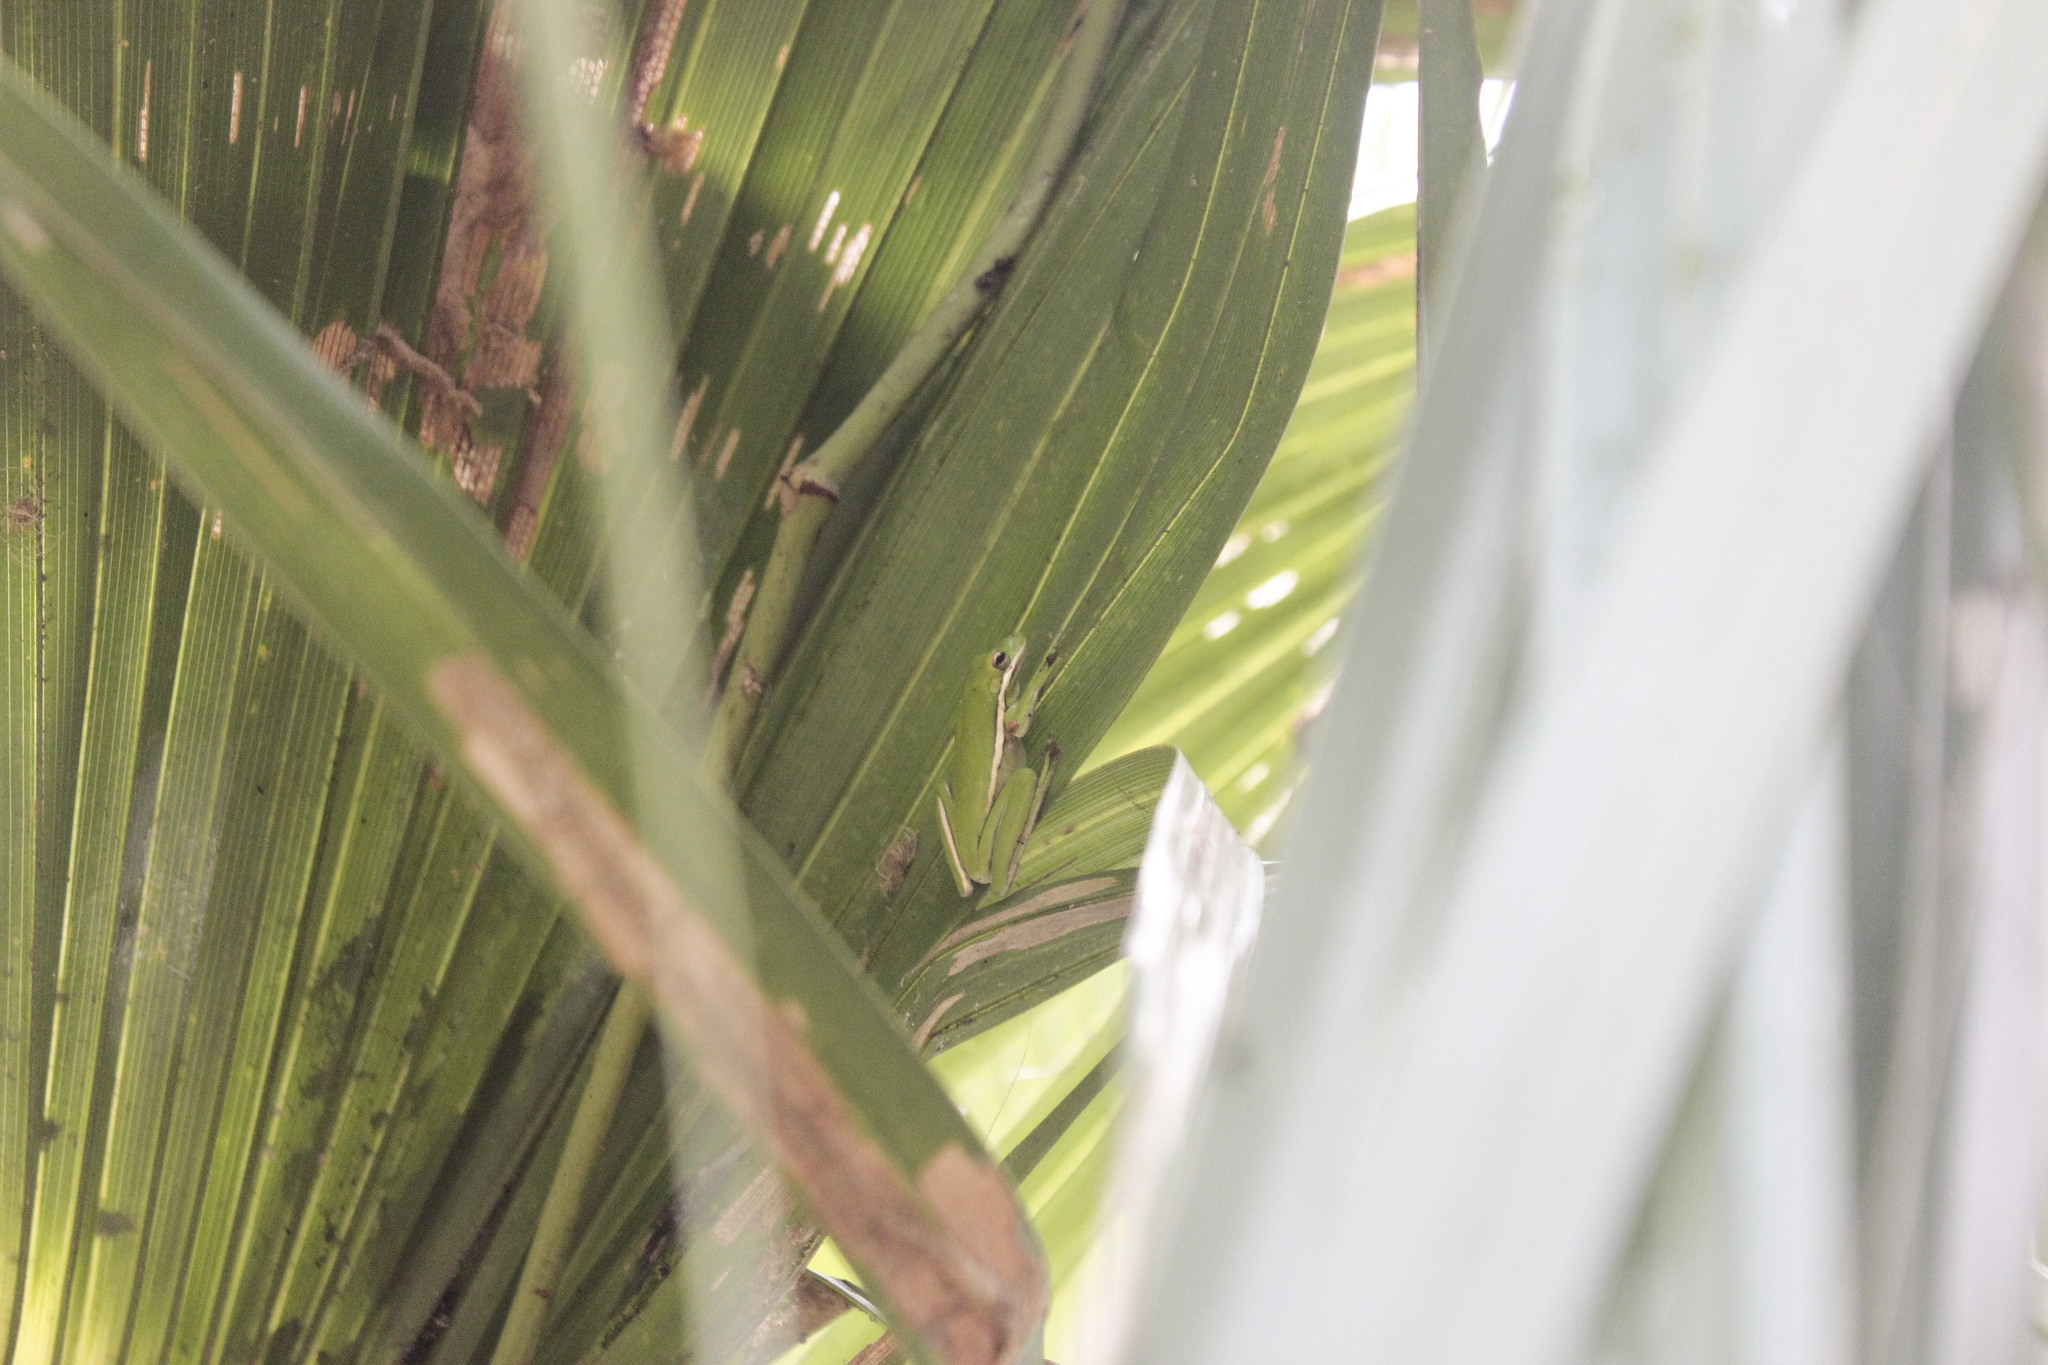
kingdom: Animalia
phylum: Chordata
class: Amphibia
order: Anura
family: Hylidae
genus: Dryophytes
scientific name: Dryophytes cinereus
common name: Green treefrog
